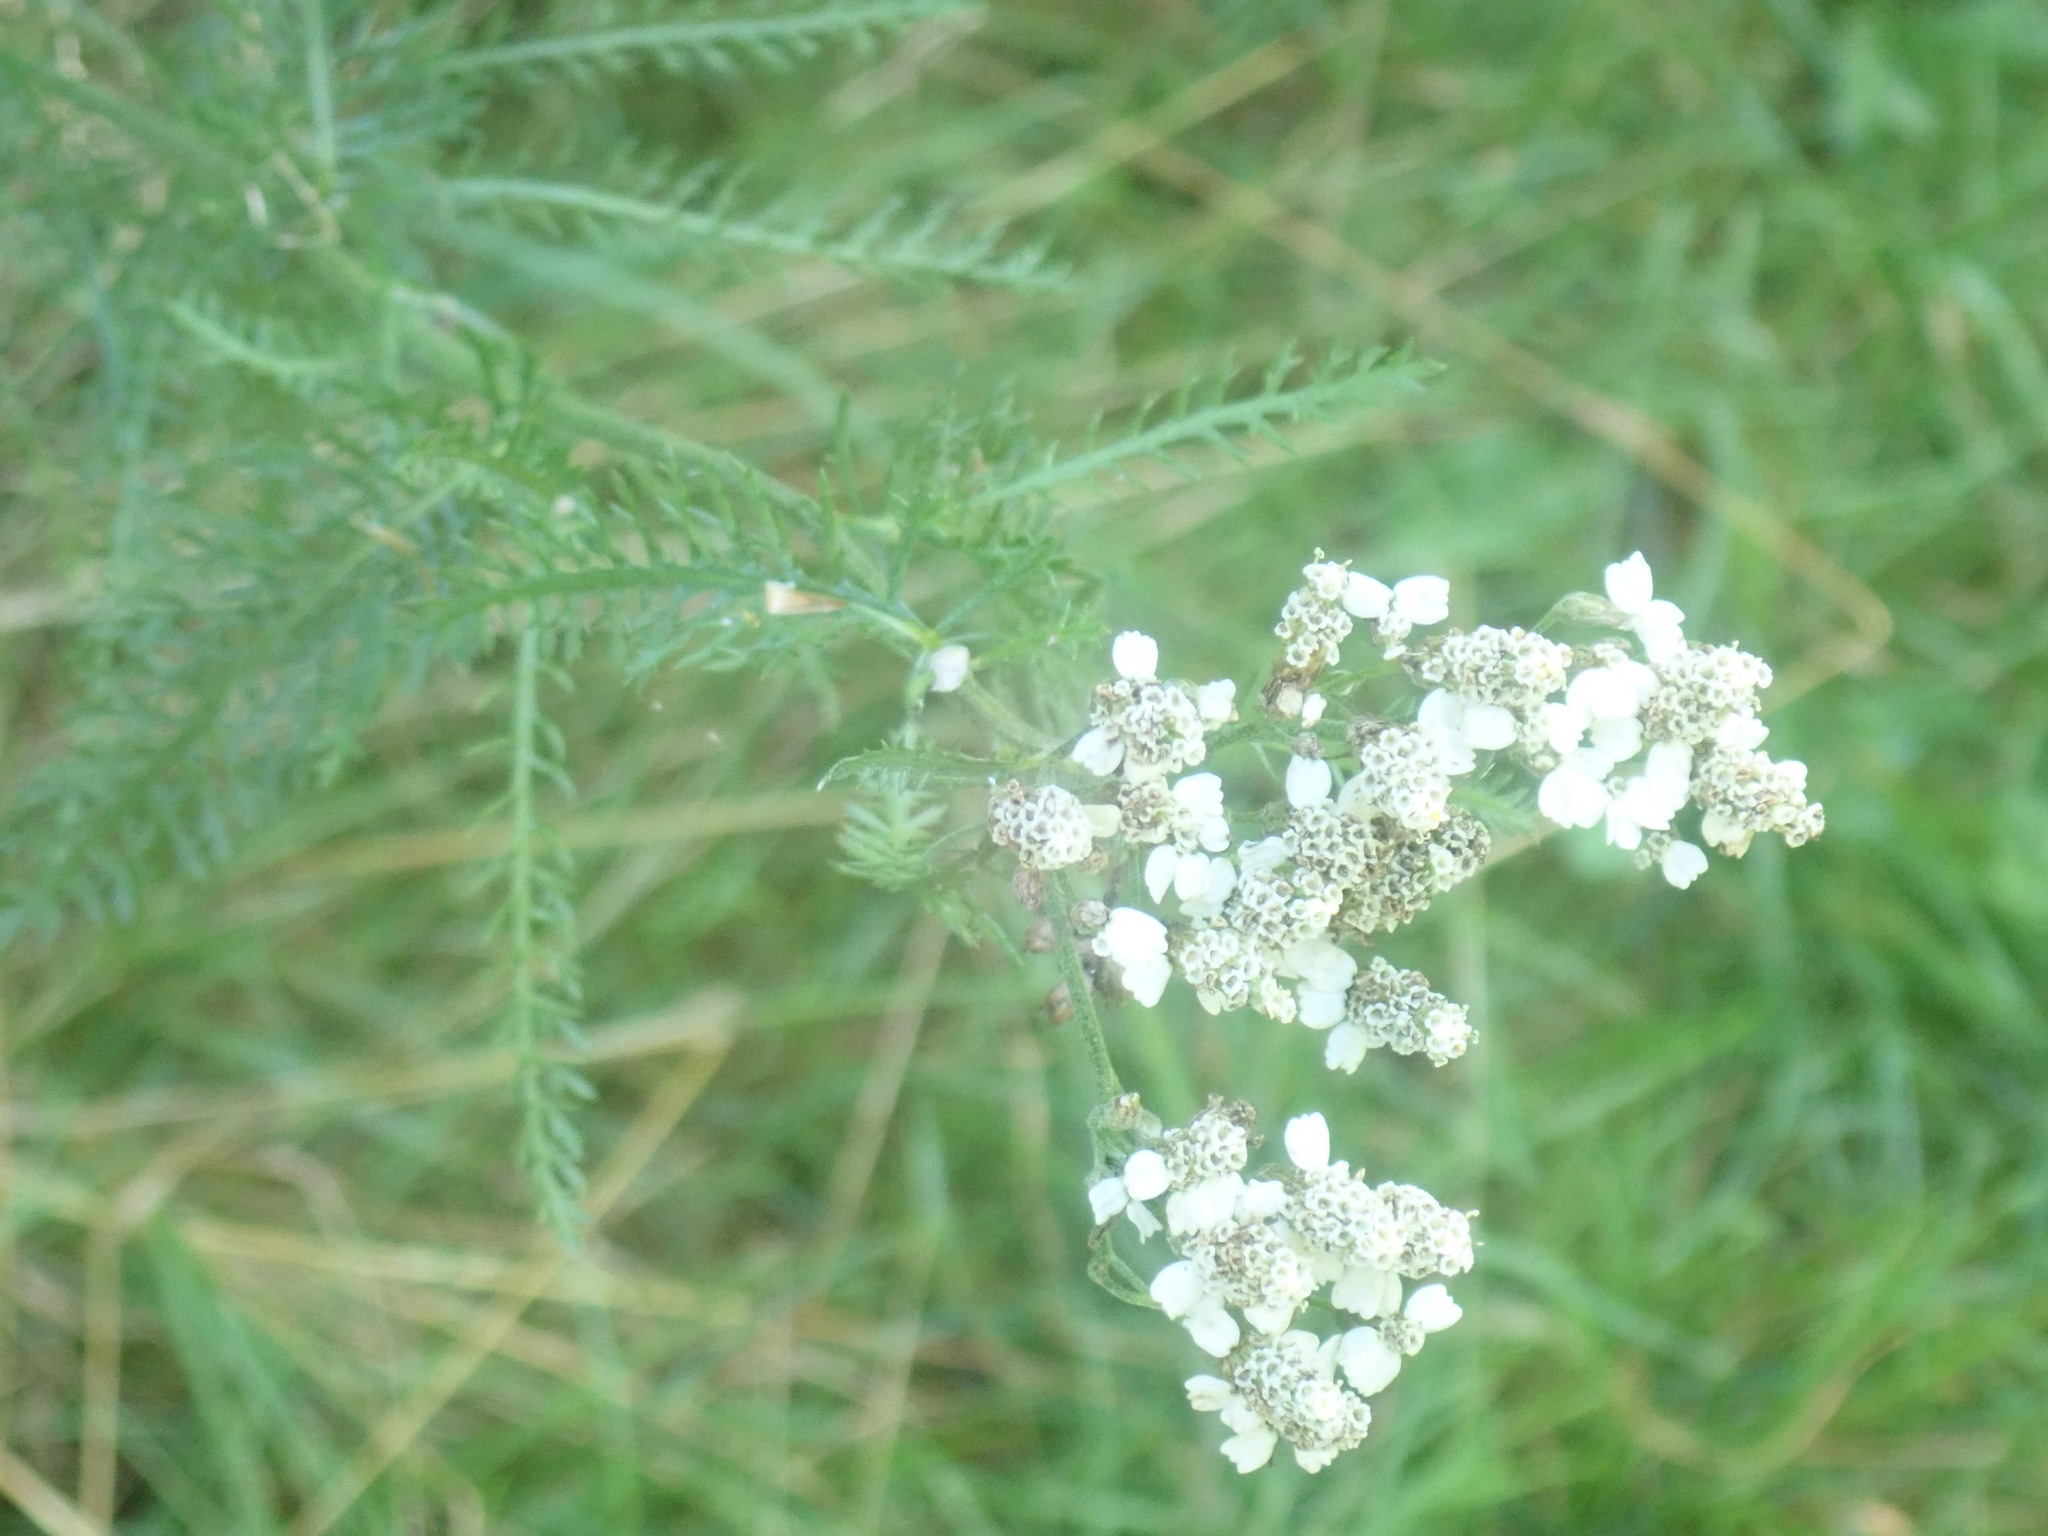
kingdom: Plantae
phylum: Tracheophyta
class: Magnoliopsida
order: Asterales
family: Asteraceae
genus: Achillea
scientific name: Achillea millefolium
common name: Yarrow
